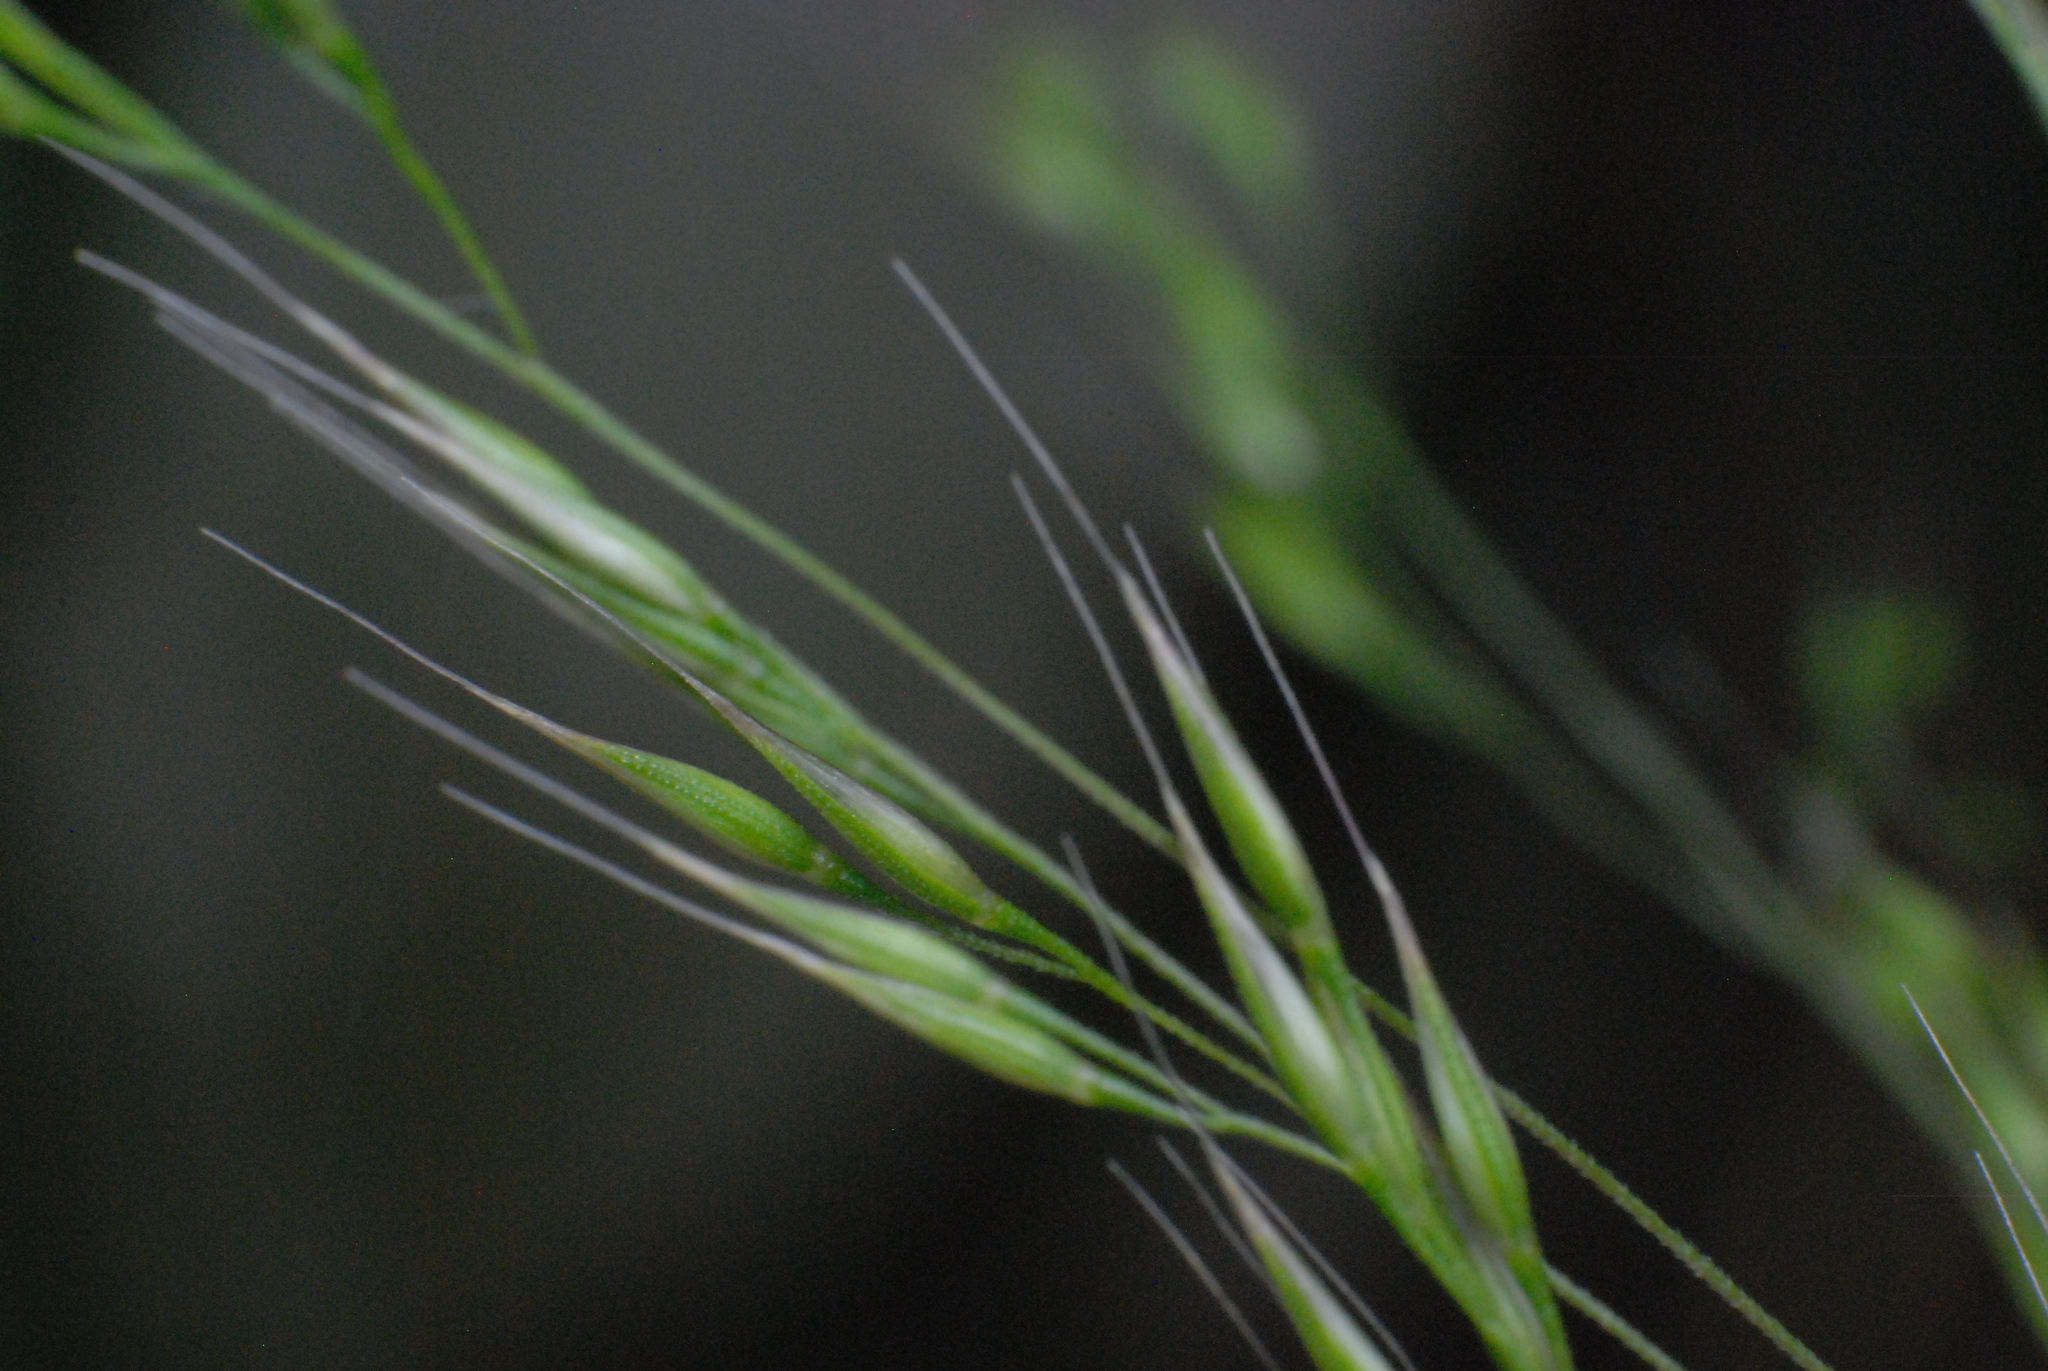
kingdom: Plantae
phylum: Tracheophyta
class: Liliopsida
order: Poales
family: Poaceae
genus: Lachnagrostis
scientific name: Lachnagrostis filiformis
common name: Bentgrass
